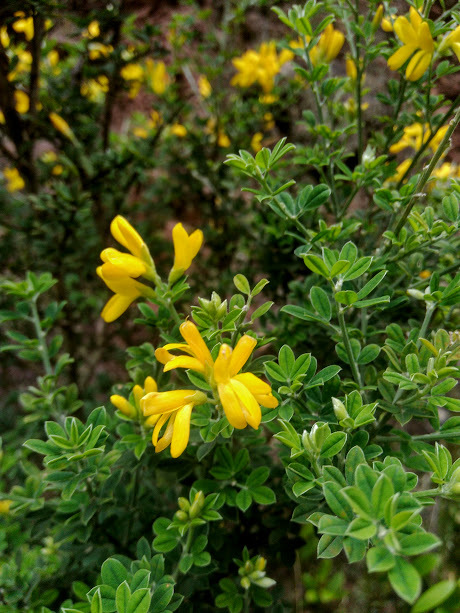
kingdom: Plantae
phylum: Tracheophyta
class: Magnoliopsida
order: Fabales
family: Fabaceae
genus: Genista
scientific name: Genista monspessulana
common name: Montpellier broom
